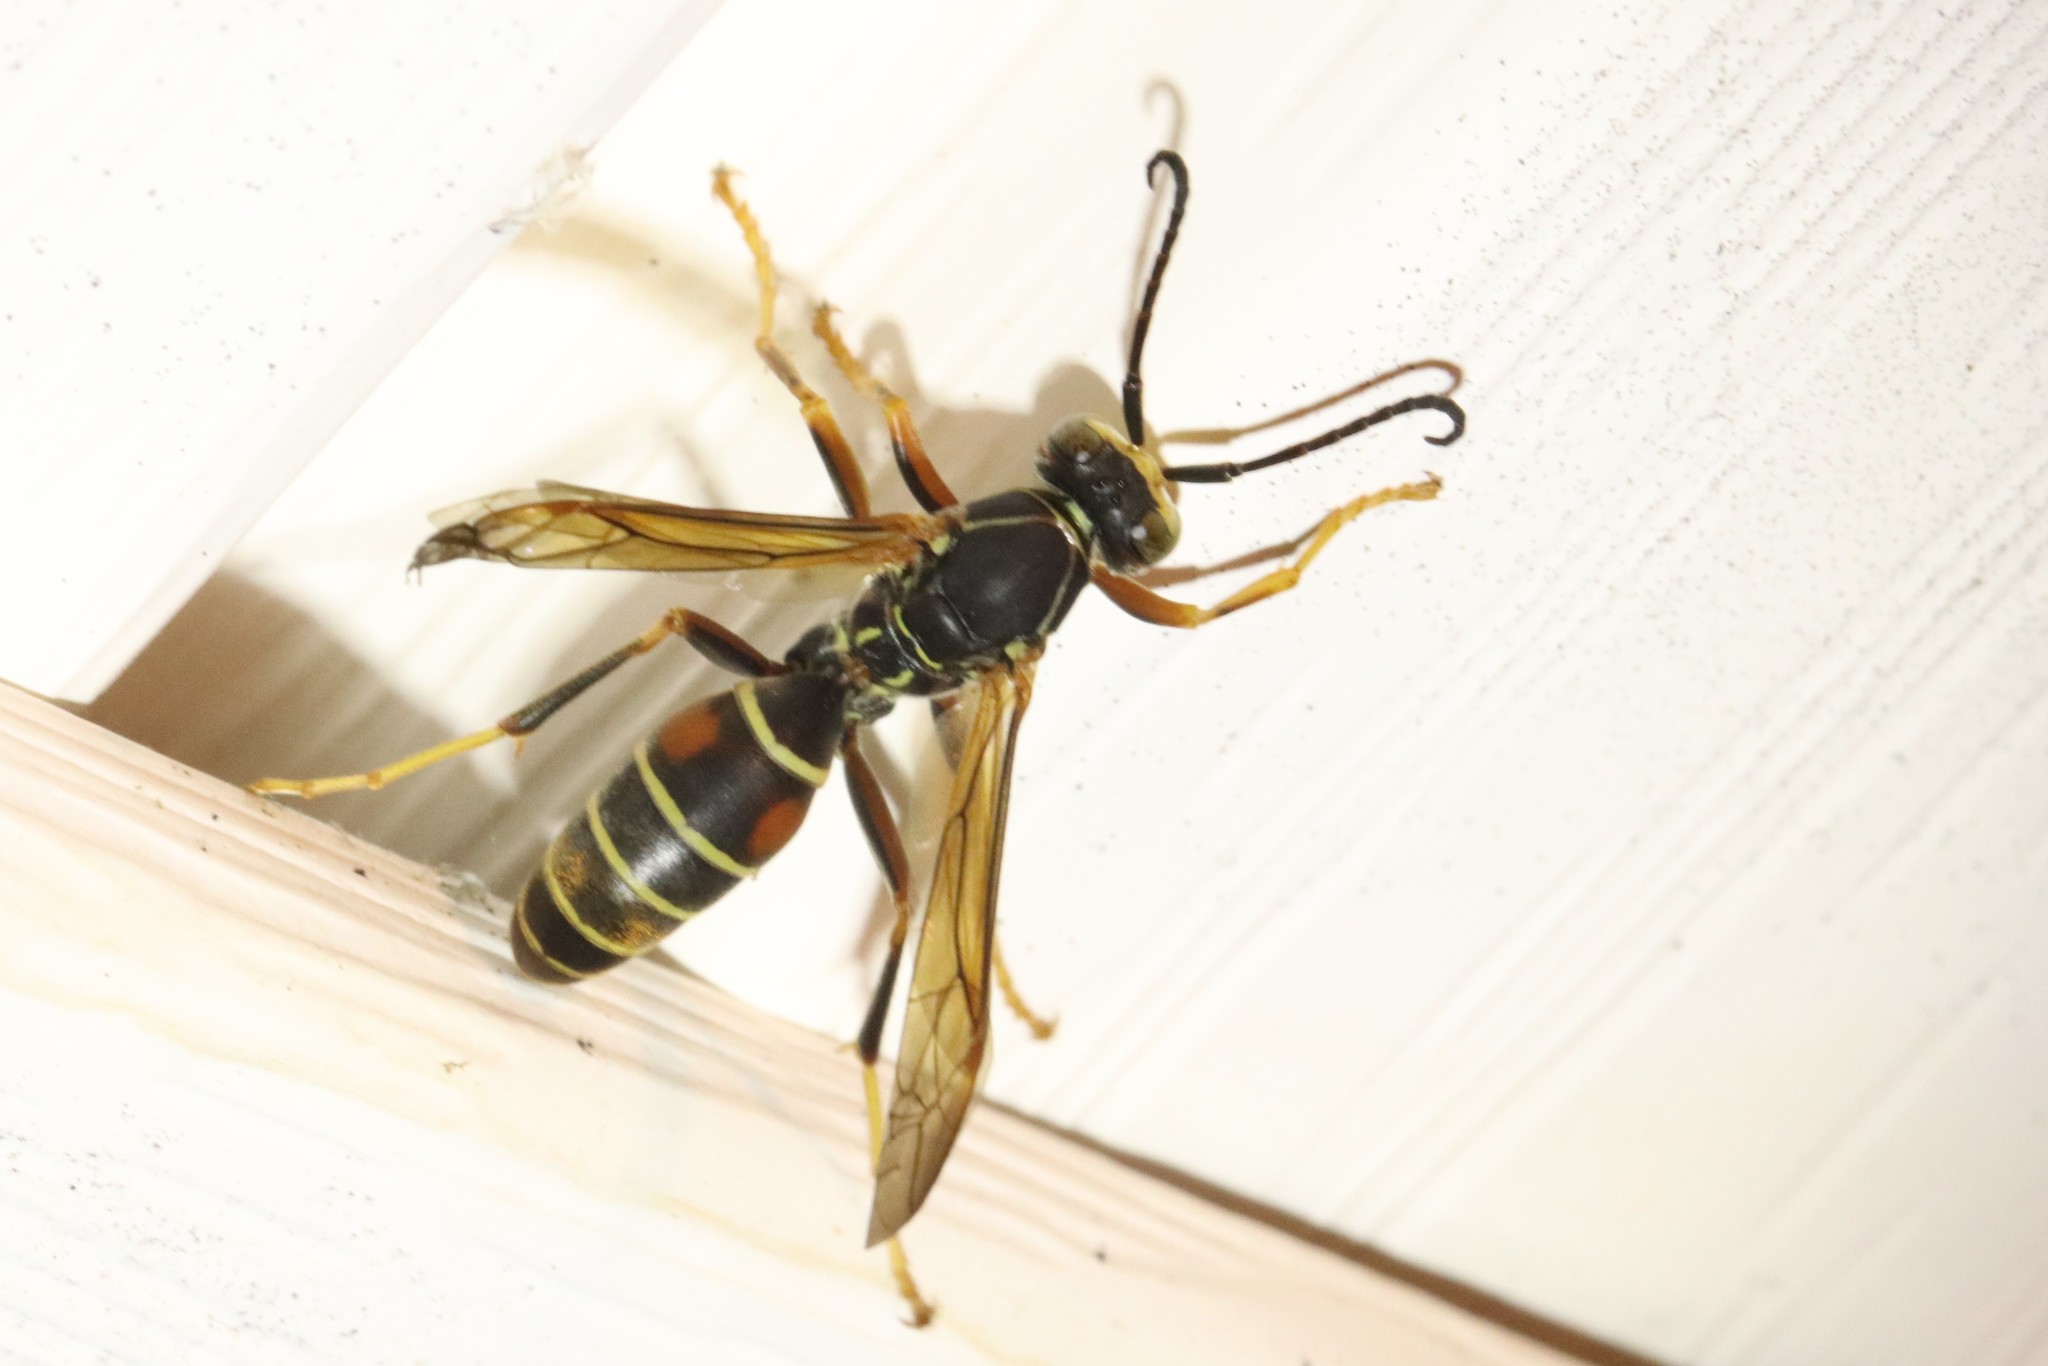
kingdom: Animalia
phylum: Arthropoda
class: Insecta
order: Hymenoptera
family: Eumenidae
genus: Polistes
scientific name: Polistes fuscatus
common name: Dark paper wasp
